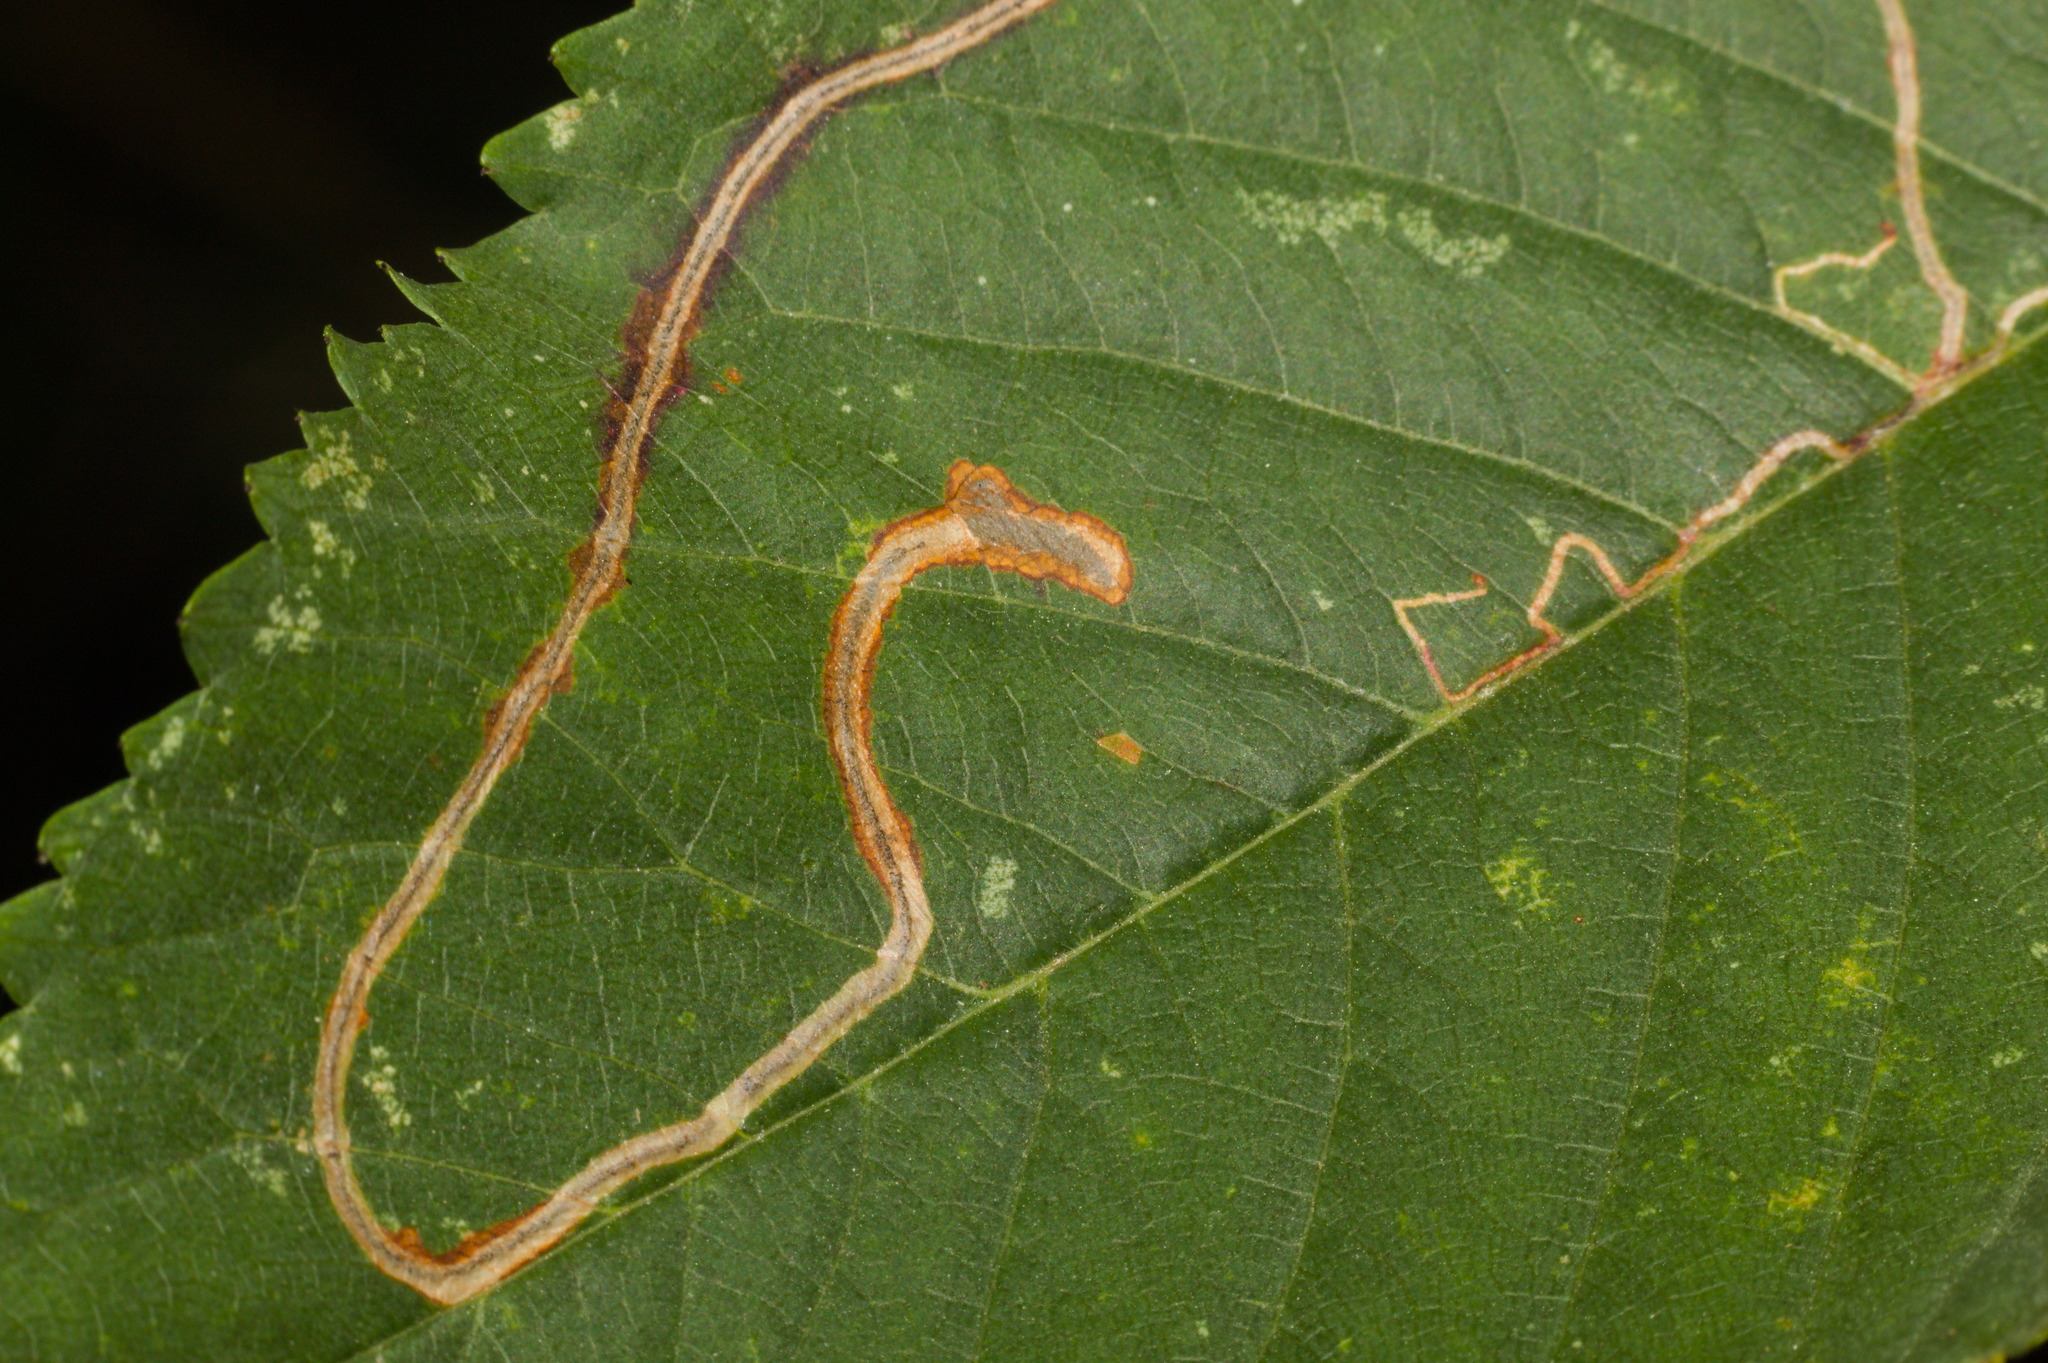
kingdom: Animalia
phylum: Arthropoda
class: Insecta
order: Lepidoptera
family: Lyonetiidae
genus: Lyonetia
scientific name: Lyonetia clerkella
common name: Apple leaf miner
